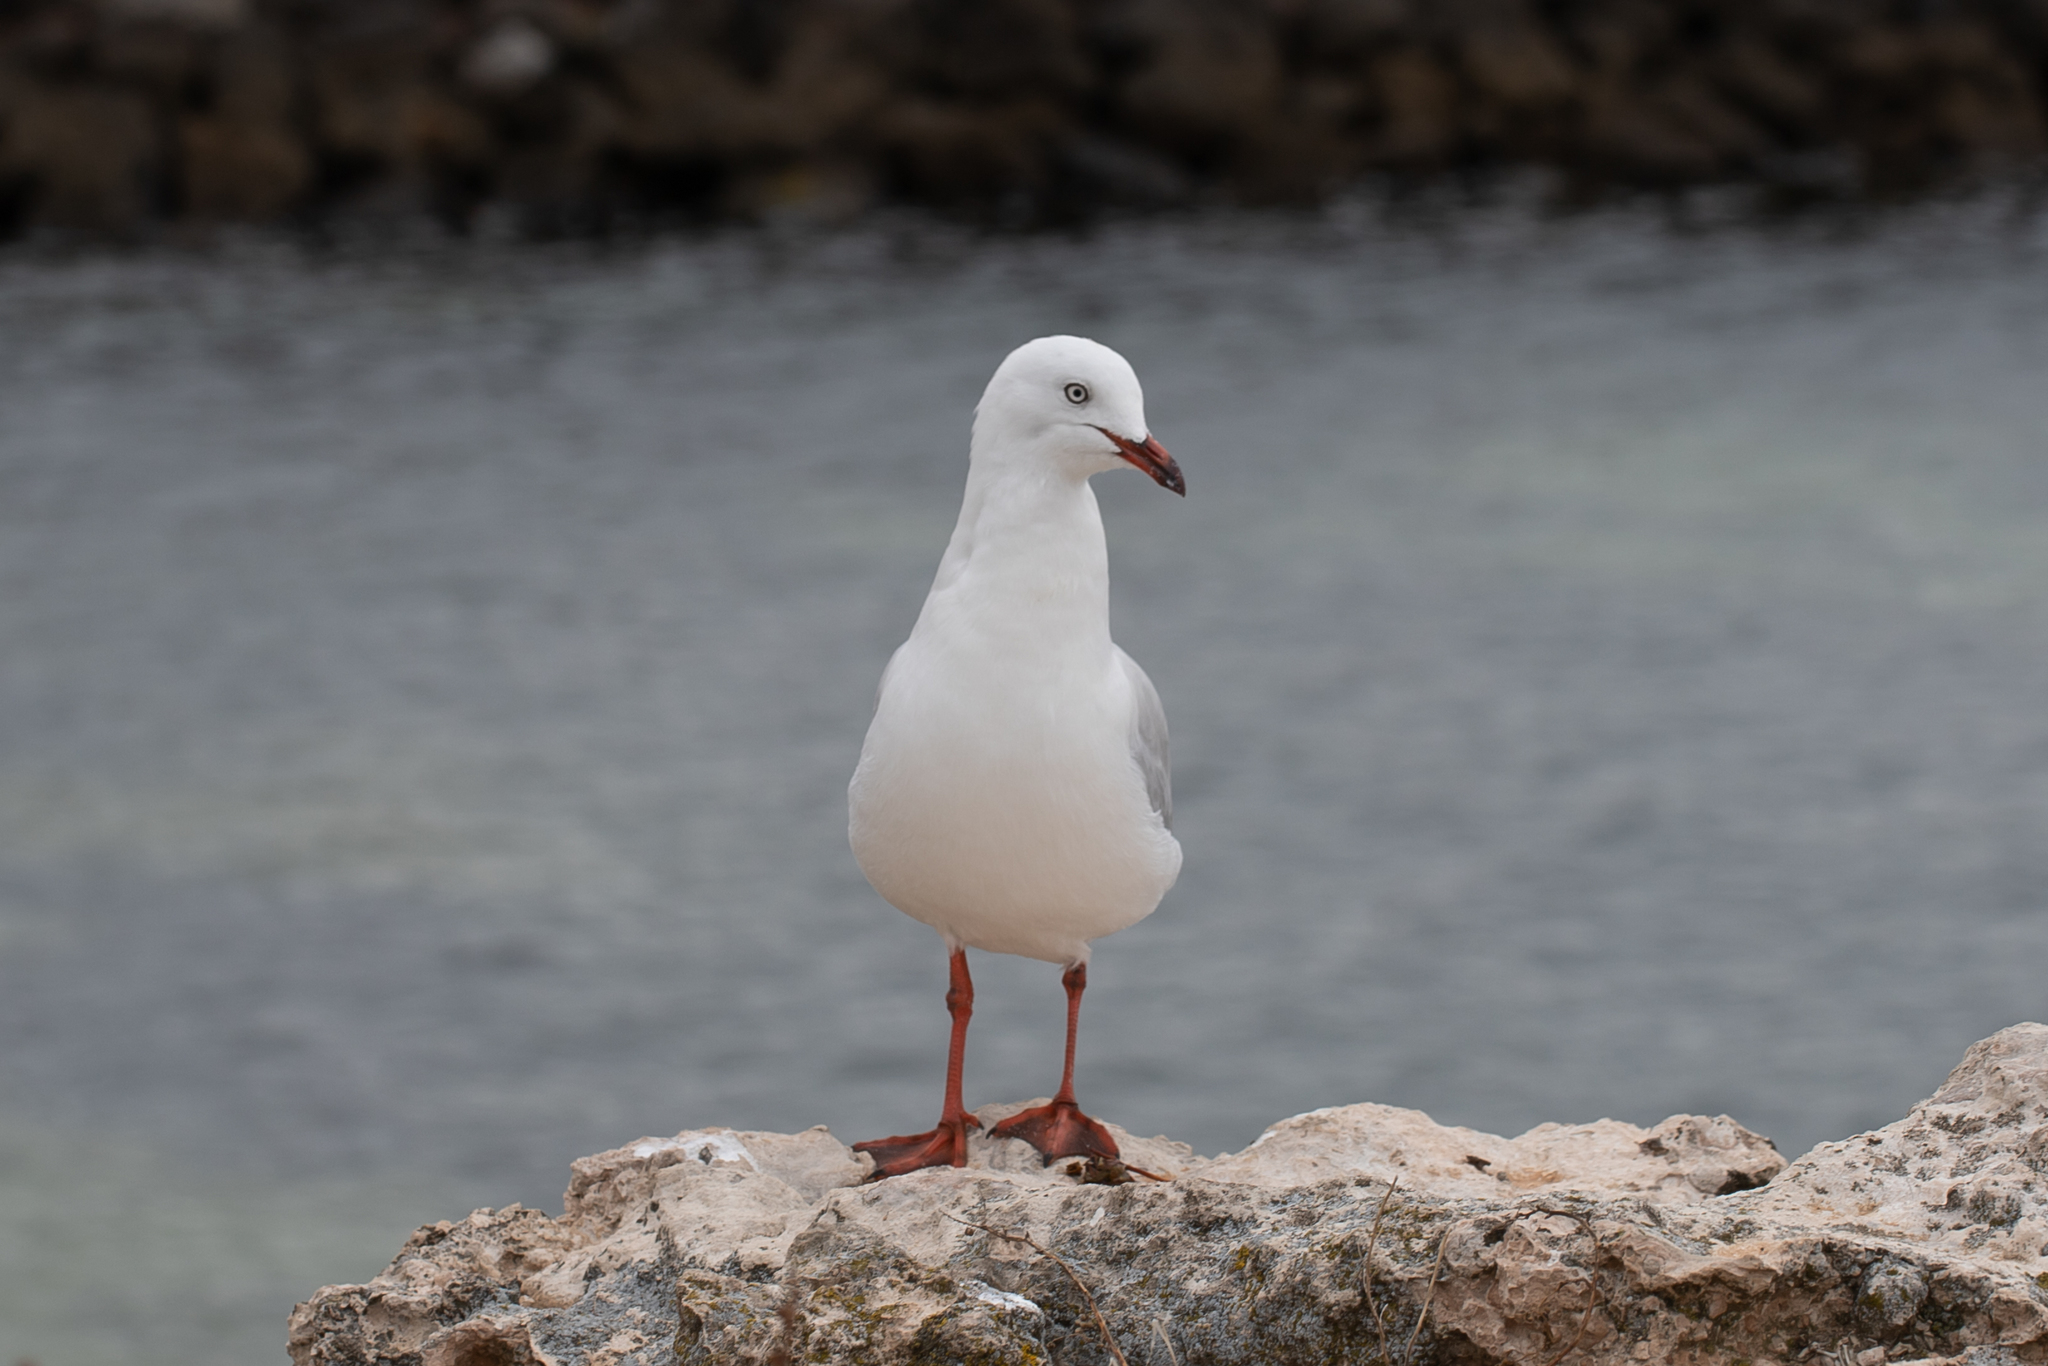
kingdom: Animalia
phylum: Chordata
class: Aves
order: Charadriiformes
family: Laridae
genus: Chroicocephalus
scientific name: Chroicocephalus novaehollandiae
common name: Silver gull
